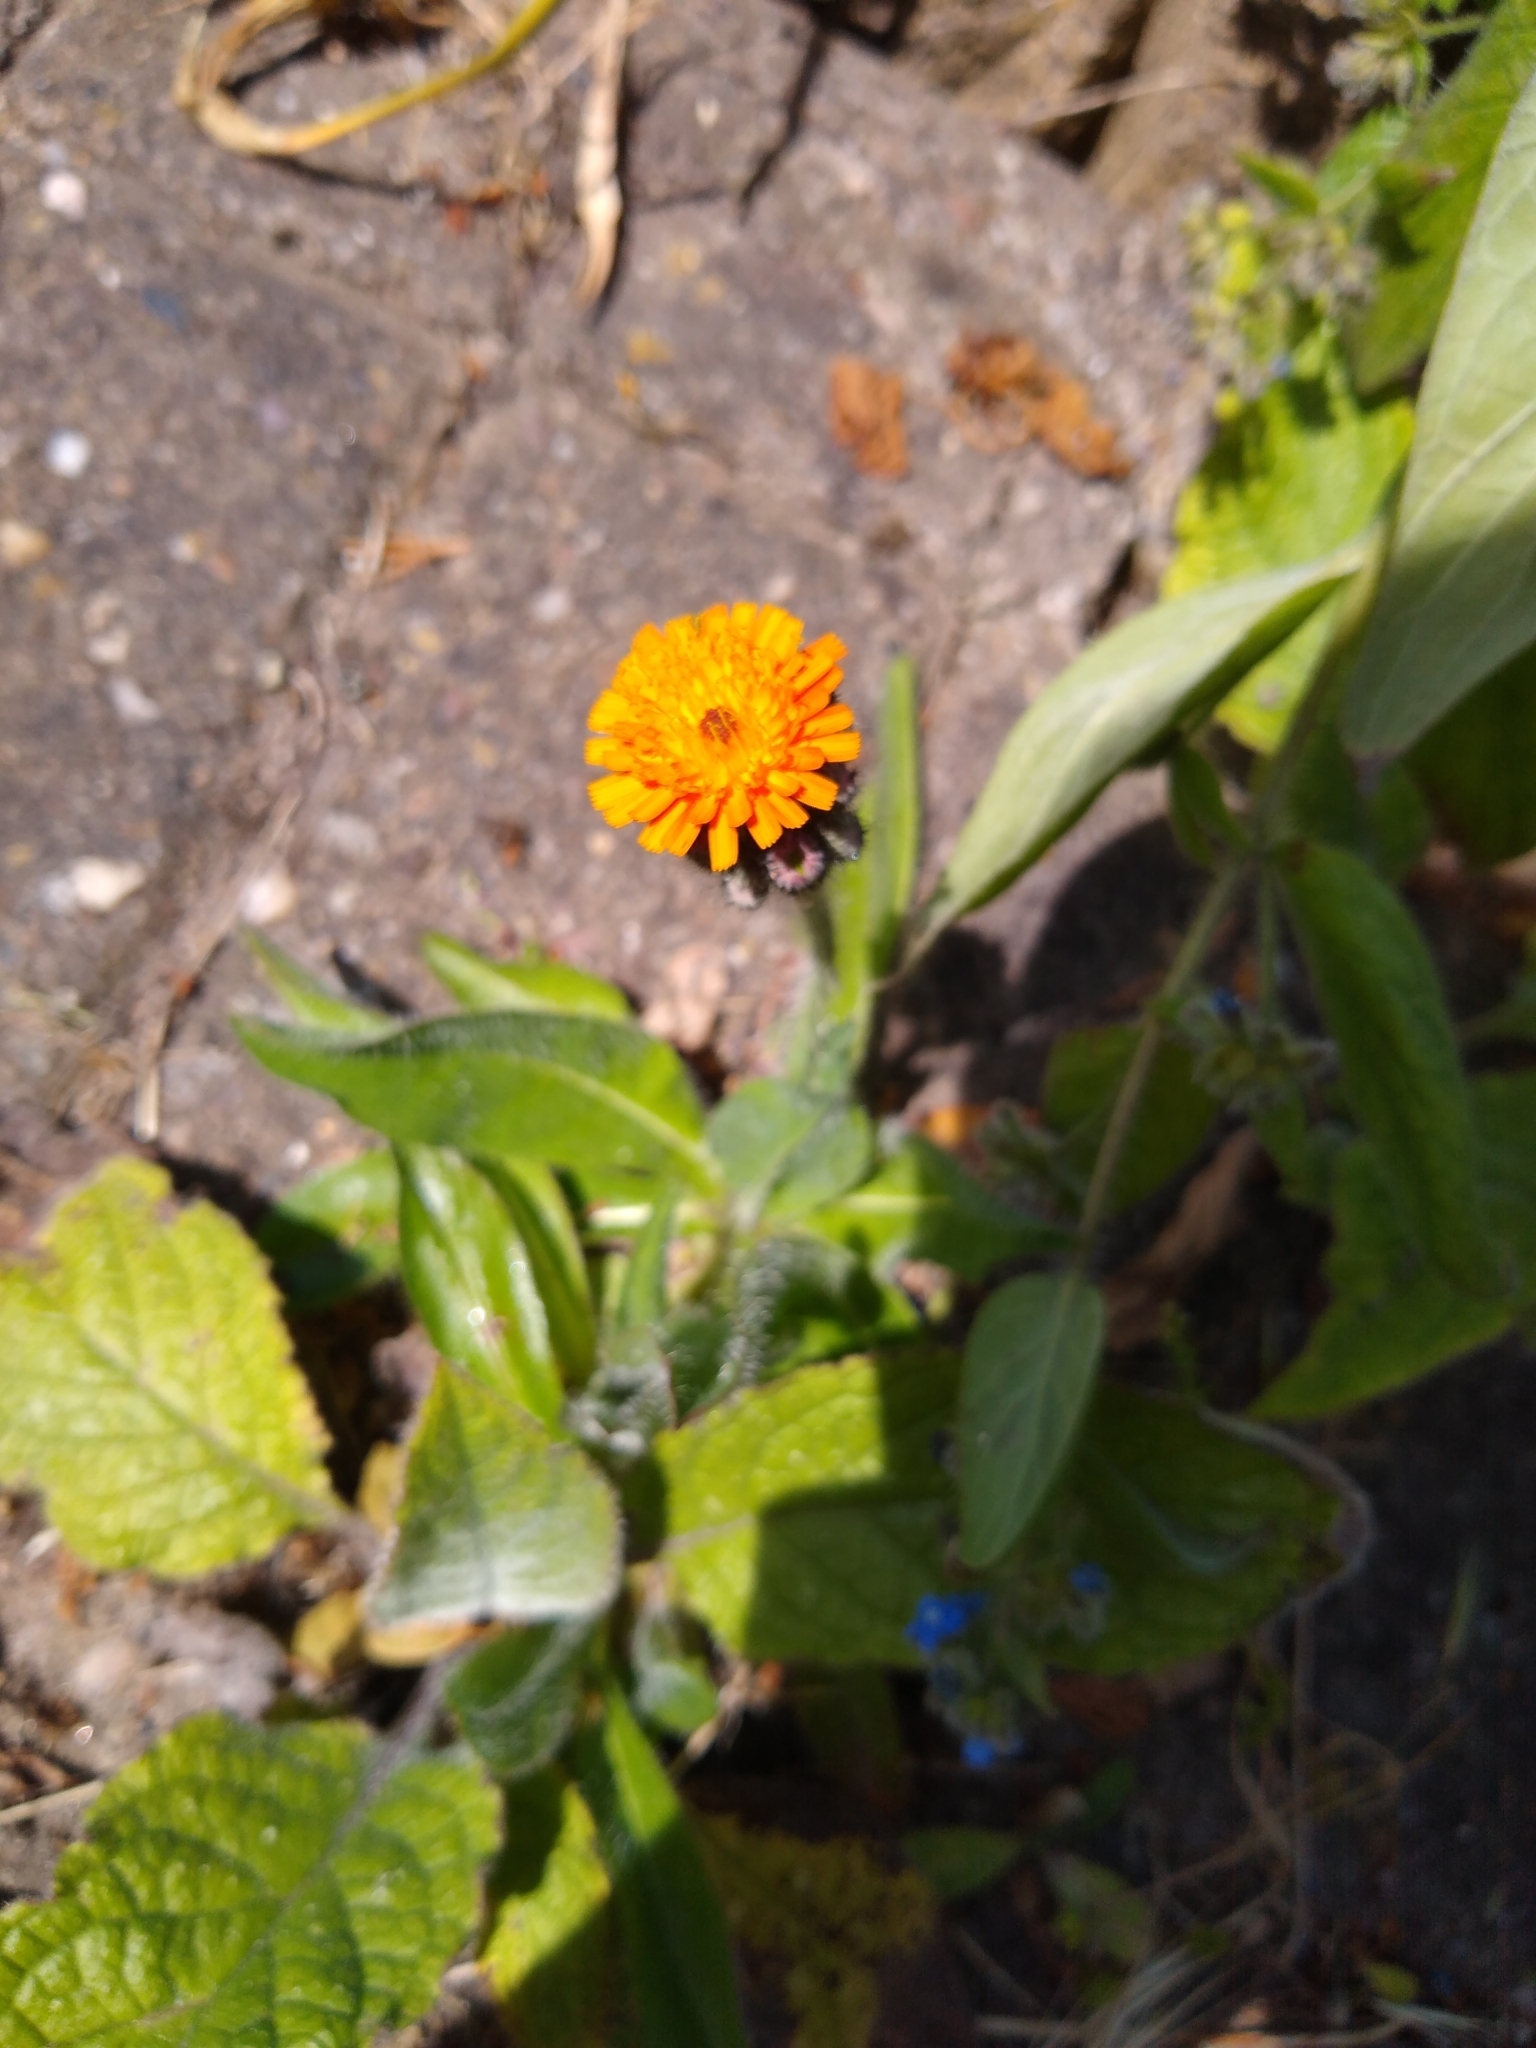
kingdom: Plantae
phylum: Tracheophyta
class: Magnoliopsida
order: Asterales
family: Asteraceae
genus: Pilosella
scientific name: Pilosella aurantiaca
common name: Fox-and-cubs
